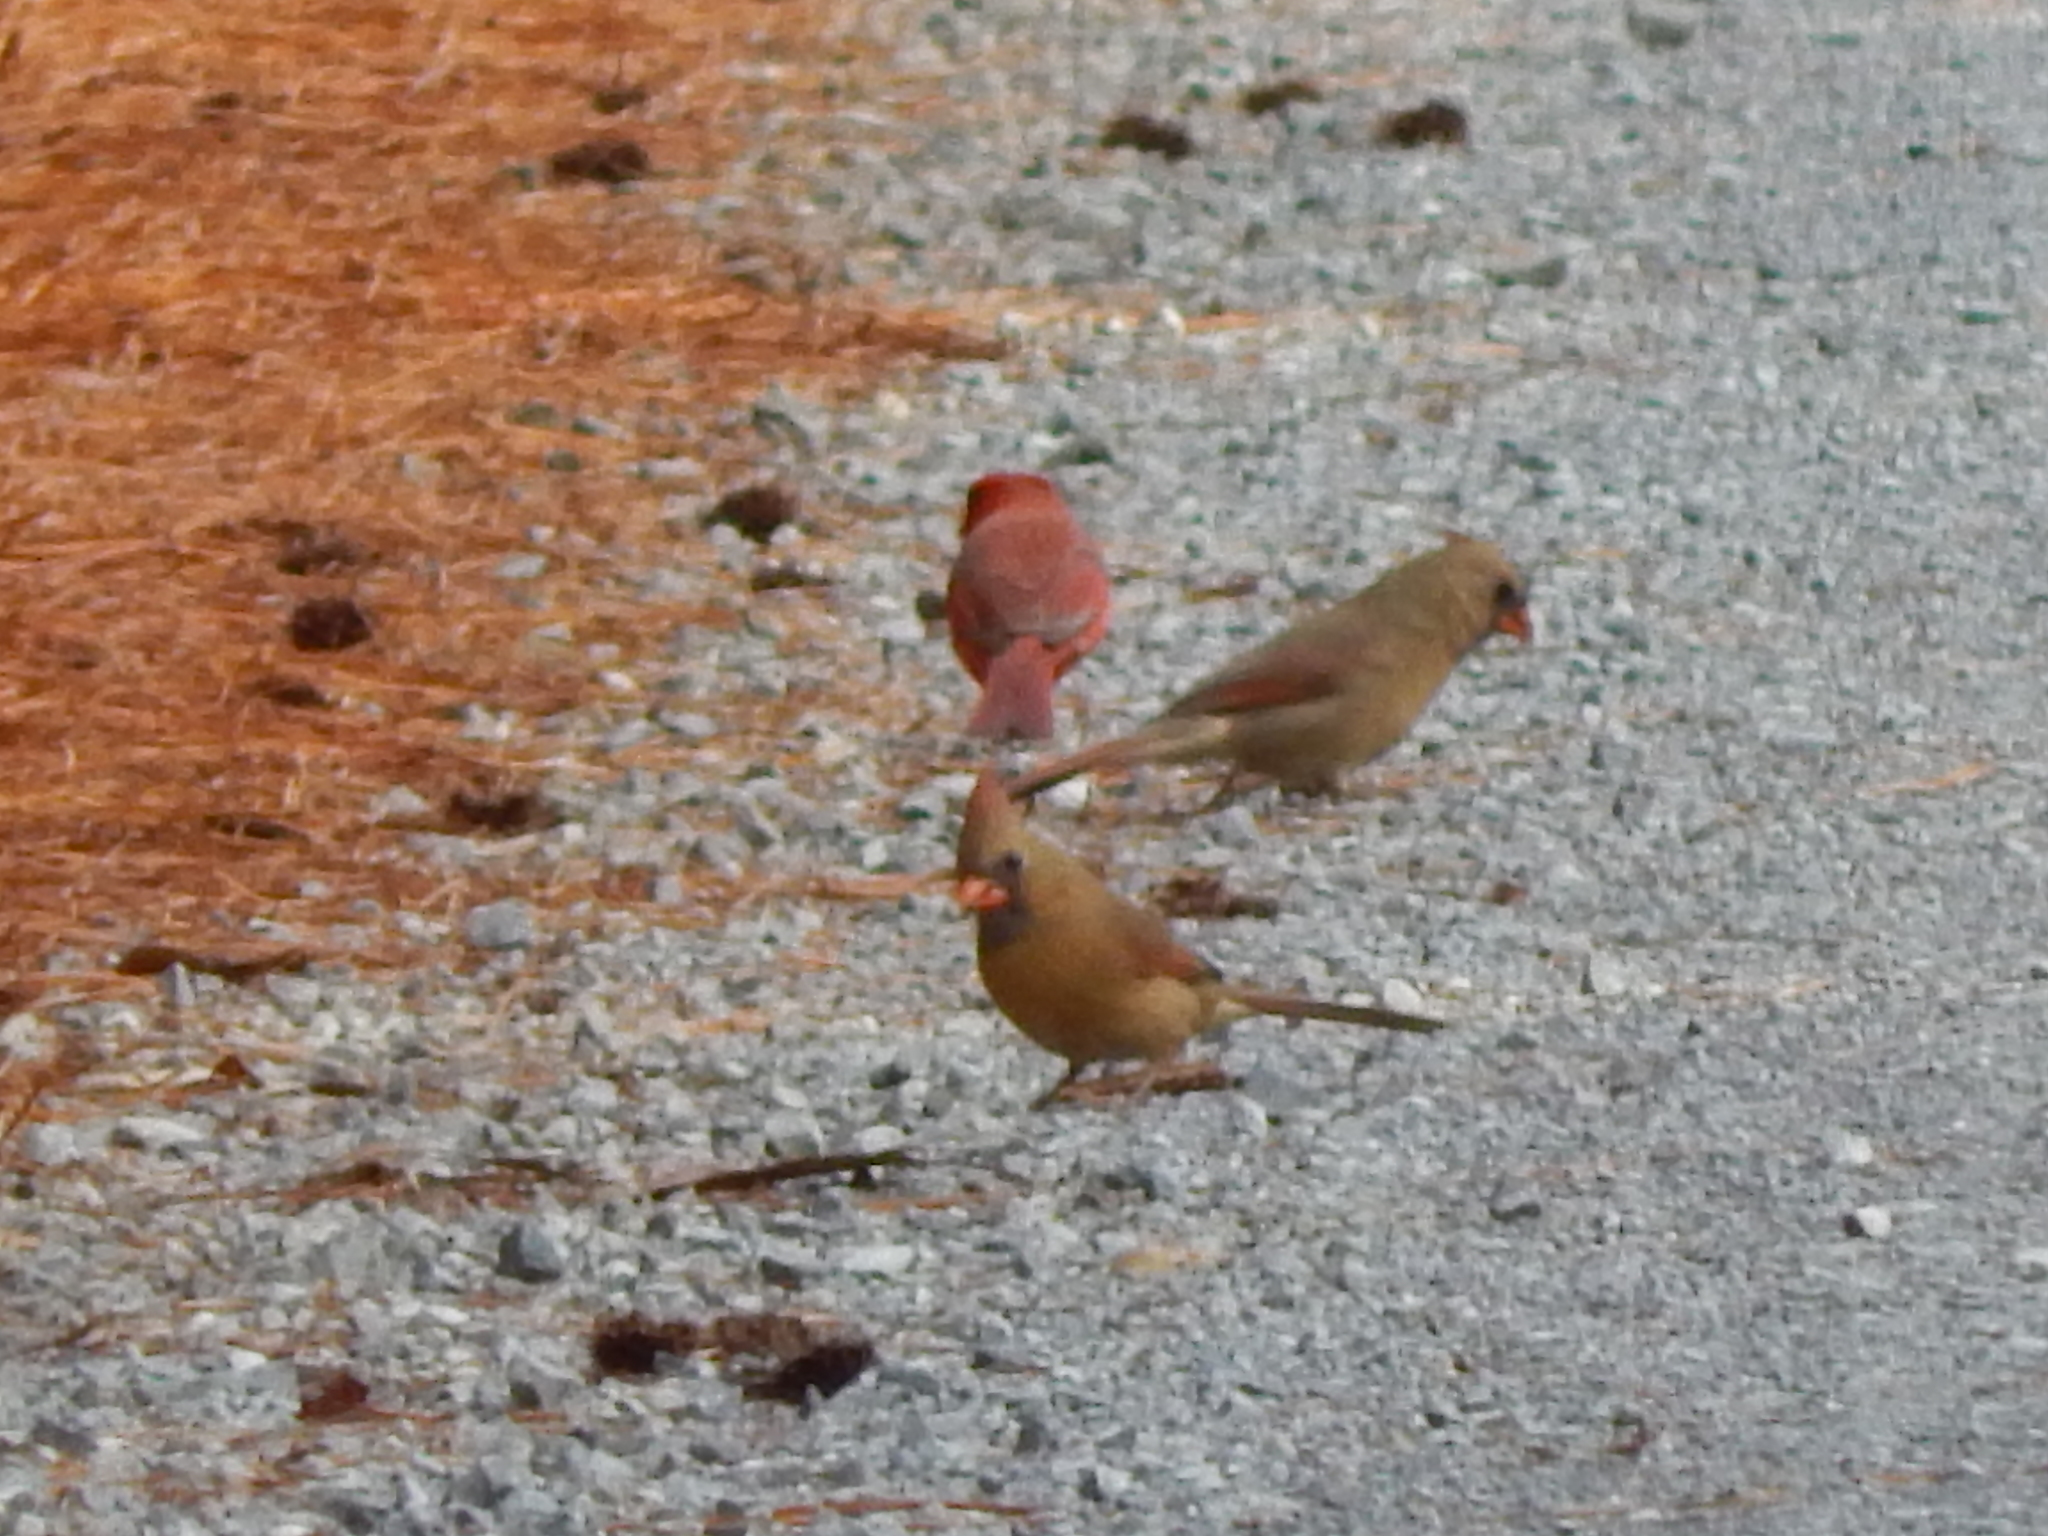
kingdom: Animalia
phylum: Chordata
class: Aves
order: Passeriformes
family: Cardinalidae
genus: Cardinalis
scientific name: Cardinalis cardinalis
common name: Northern cardinal
